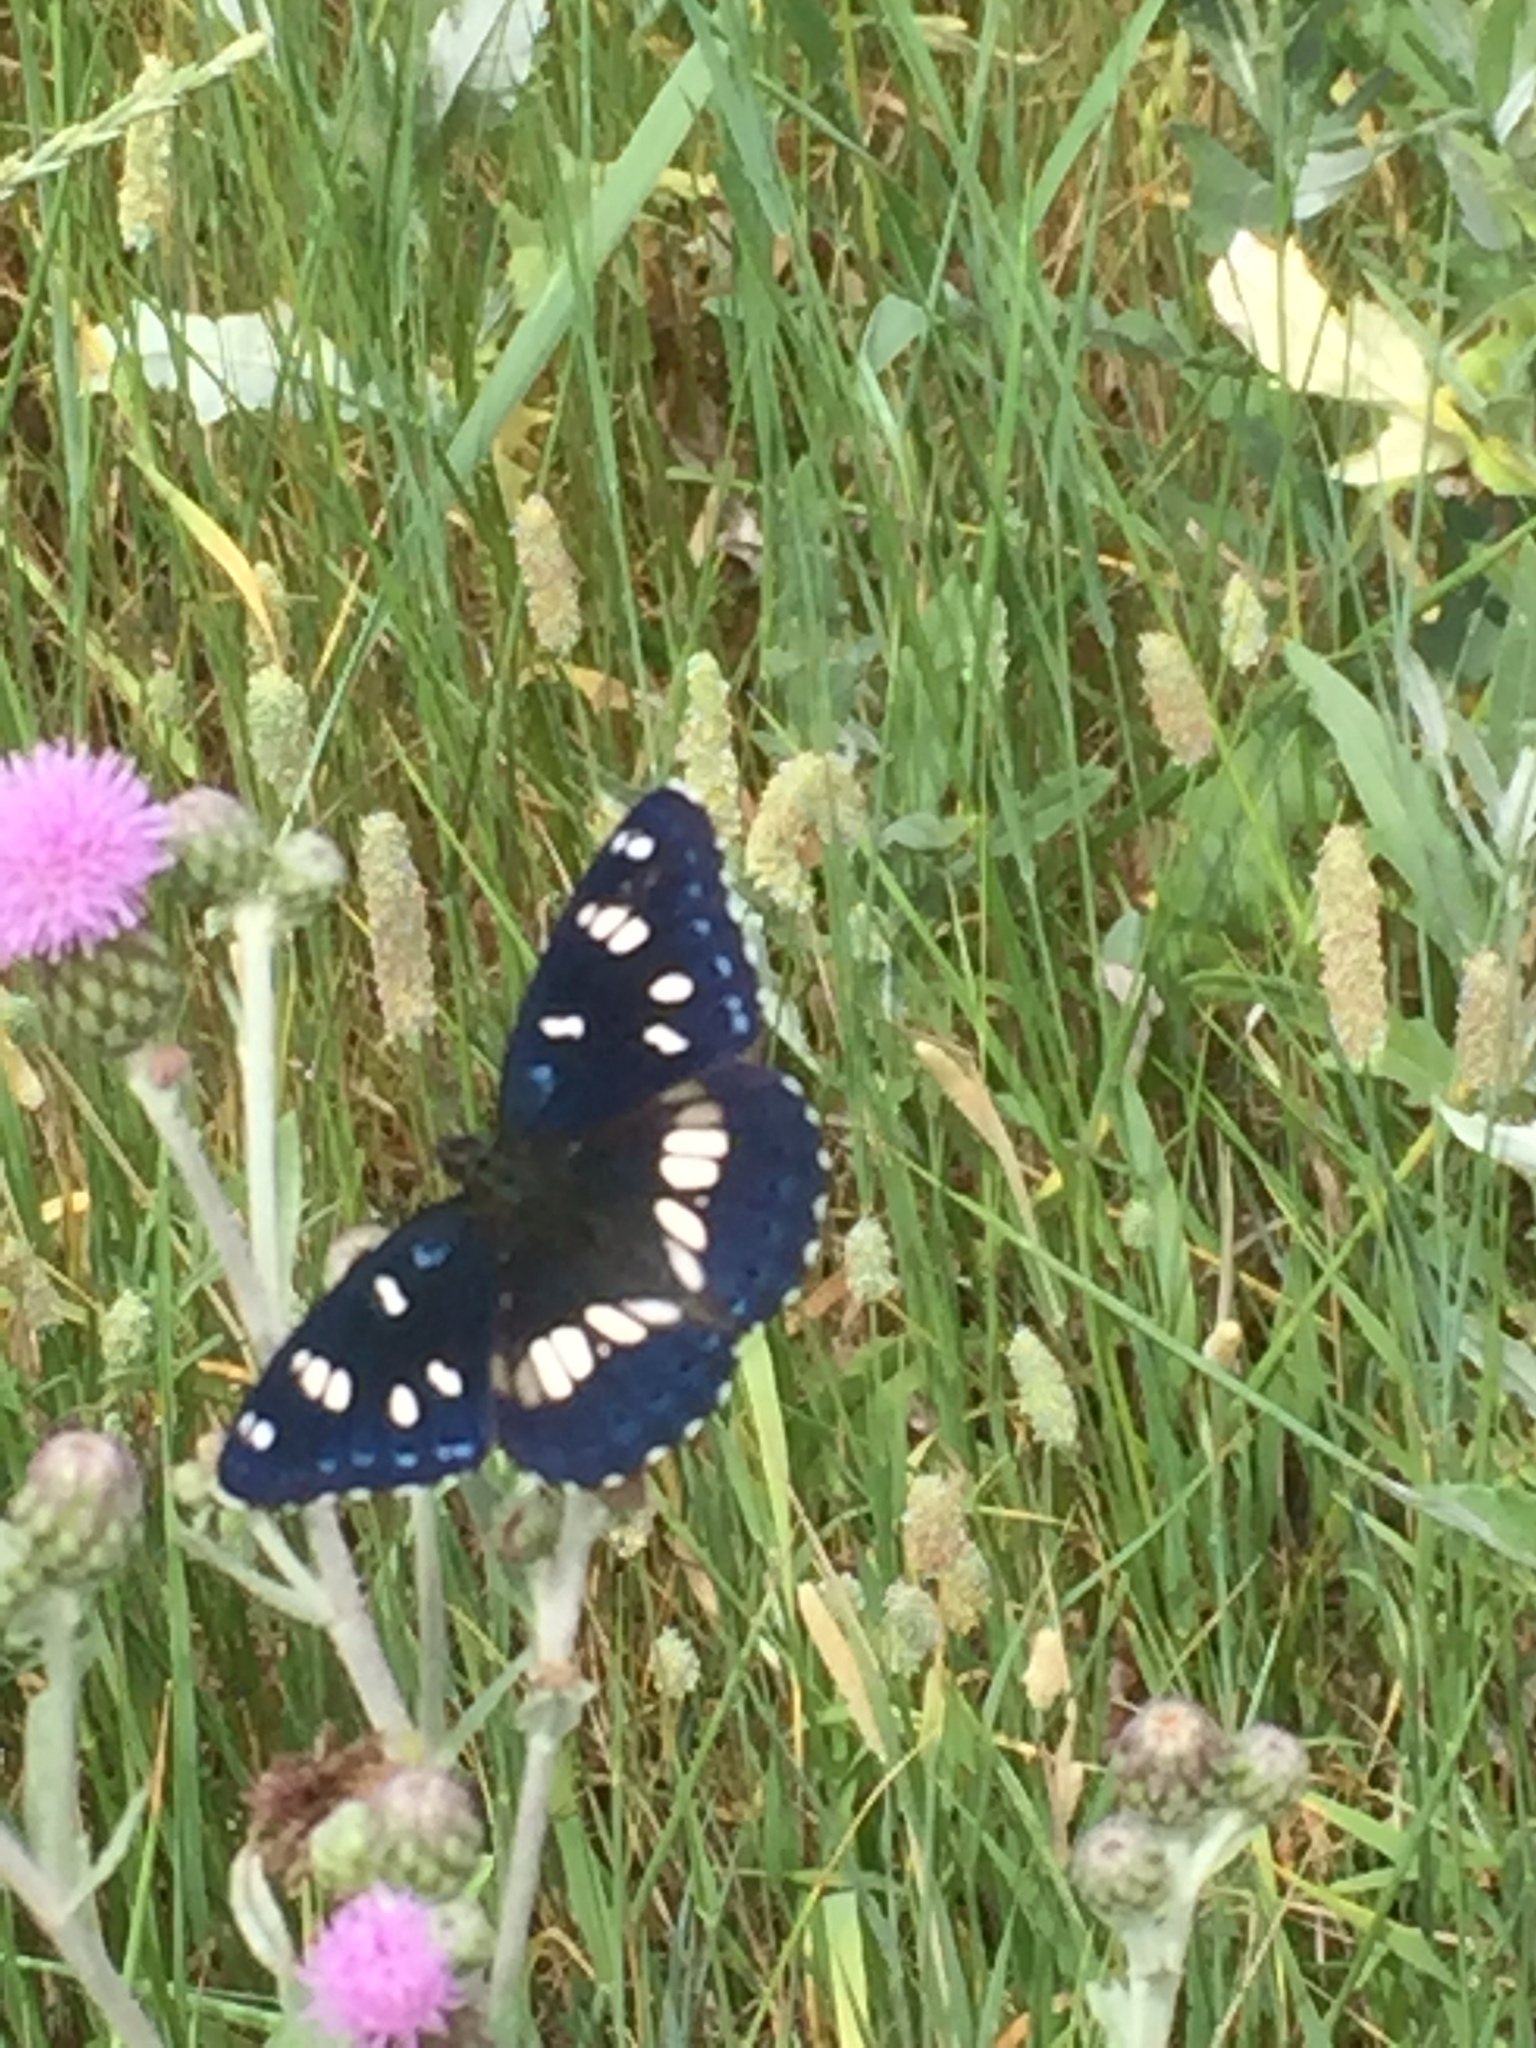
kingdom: Animalia
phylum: Arthropoda
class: Insecta
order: Lepidoptera
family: Nymphalidae
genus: Limenitis
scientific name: Limenitis reducta
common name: Southern white admiral
